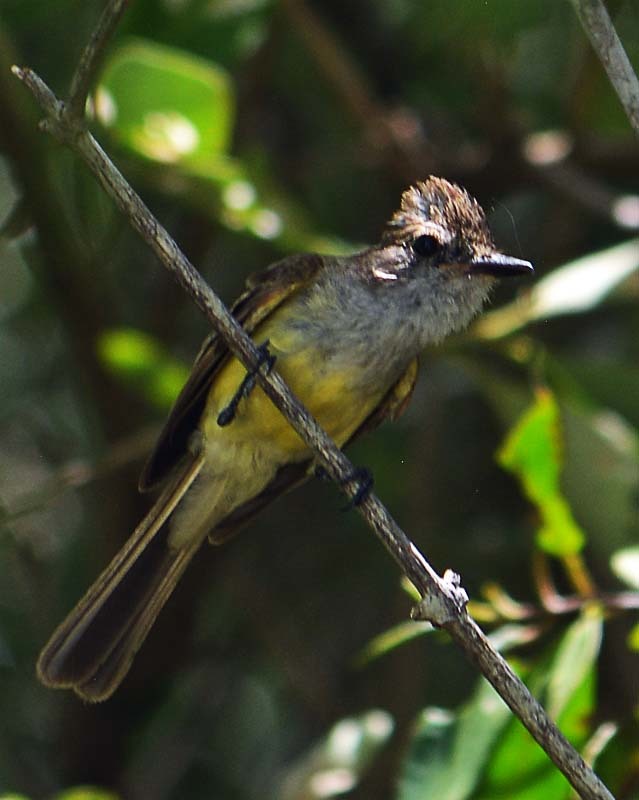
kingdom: Animalia
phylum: Chordata
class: Aves
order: Passeriformes
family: Tyrannidae
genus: Myiarchus
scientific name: Myiarchus yucatanensis
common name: Yucatan flycatcher
